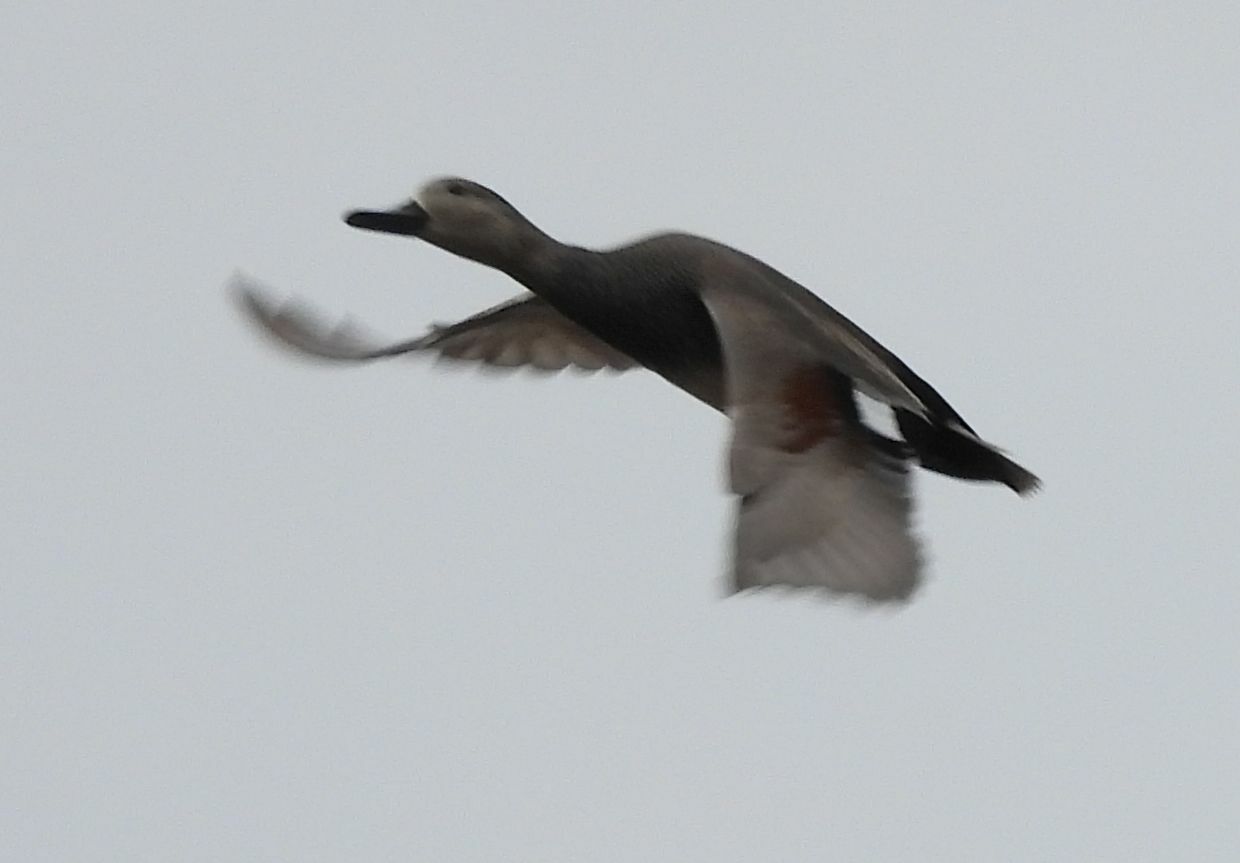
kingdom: Animalia
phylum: Chordata
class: Aves
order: Anseriformes
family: Anatidae
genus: Mareca
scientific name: Mareca strepera
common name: Gadwall
